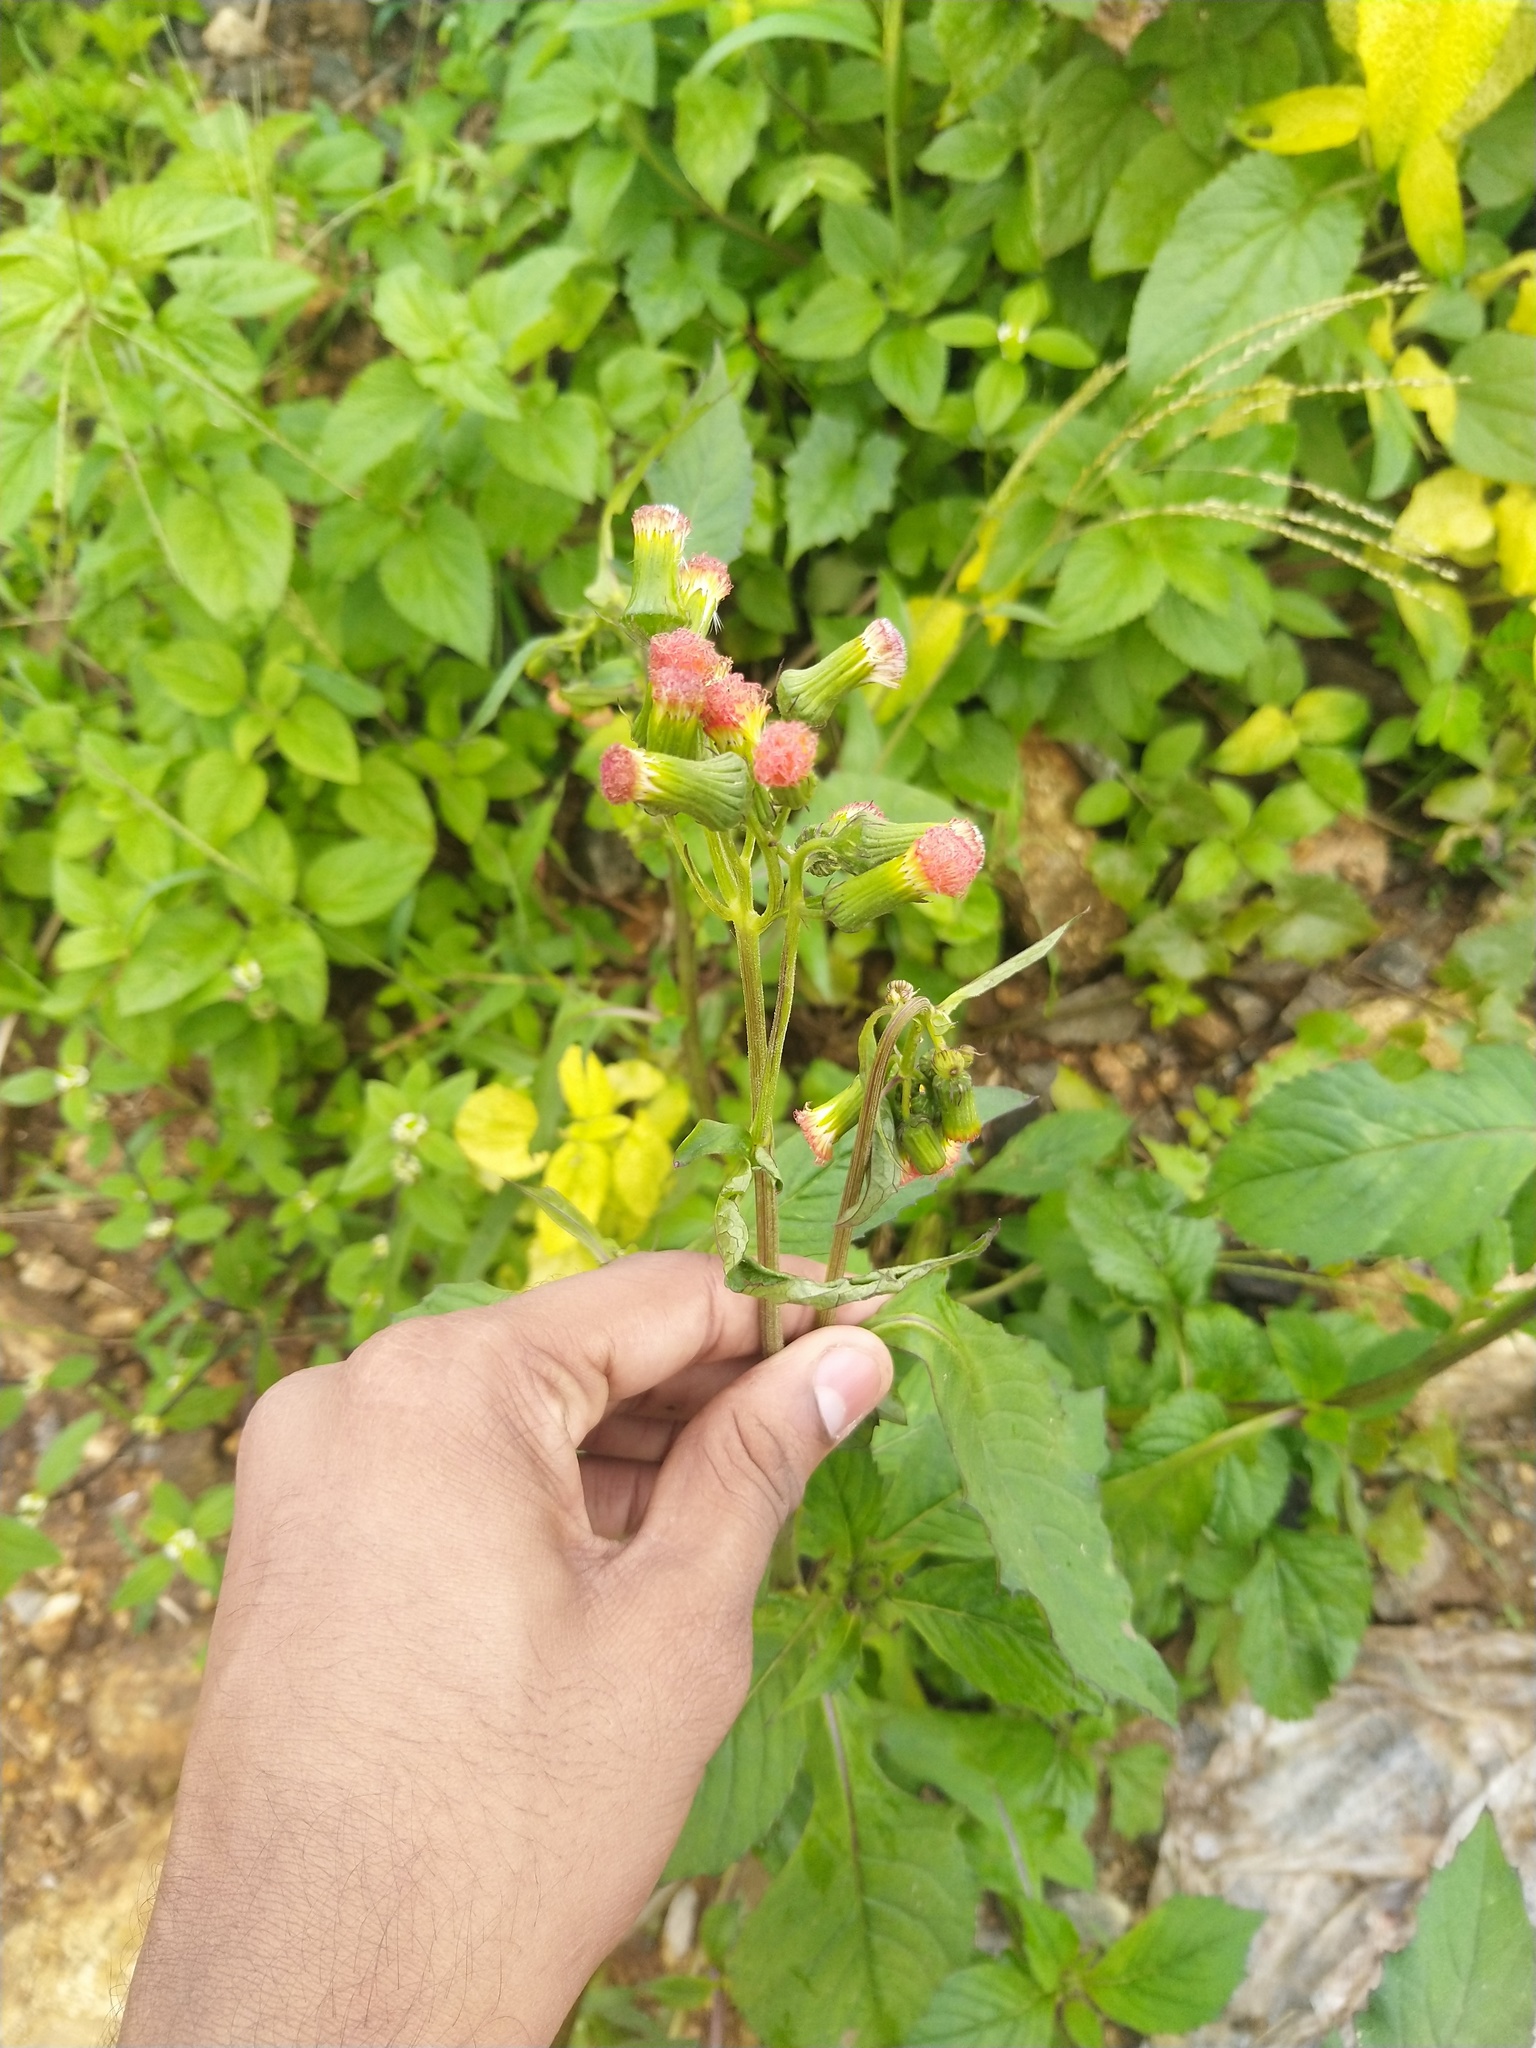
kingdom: Plantae
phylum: Tracheophyta
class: Magnoliopsida
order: Asterales
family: Asteraceae
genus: Crassocephalum
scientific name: Crassocephalum crepidioides
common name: Redflower ragleaf
